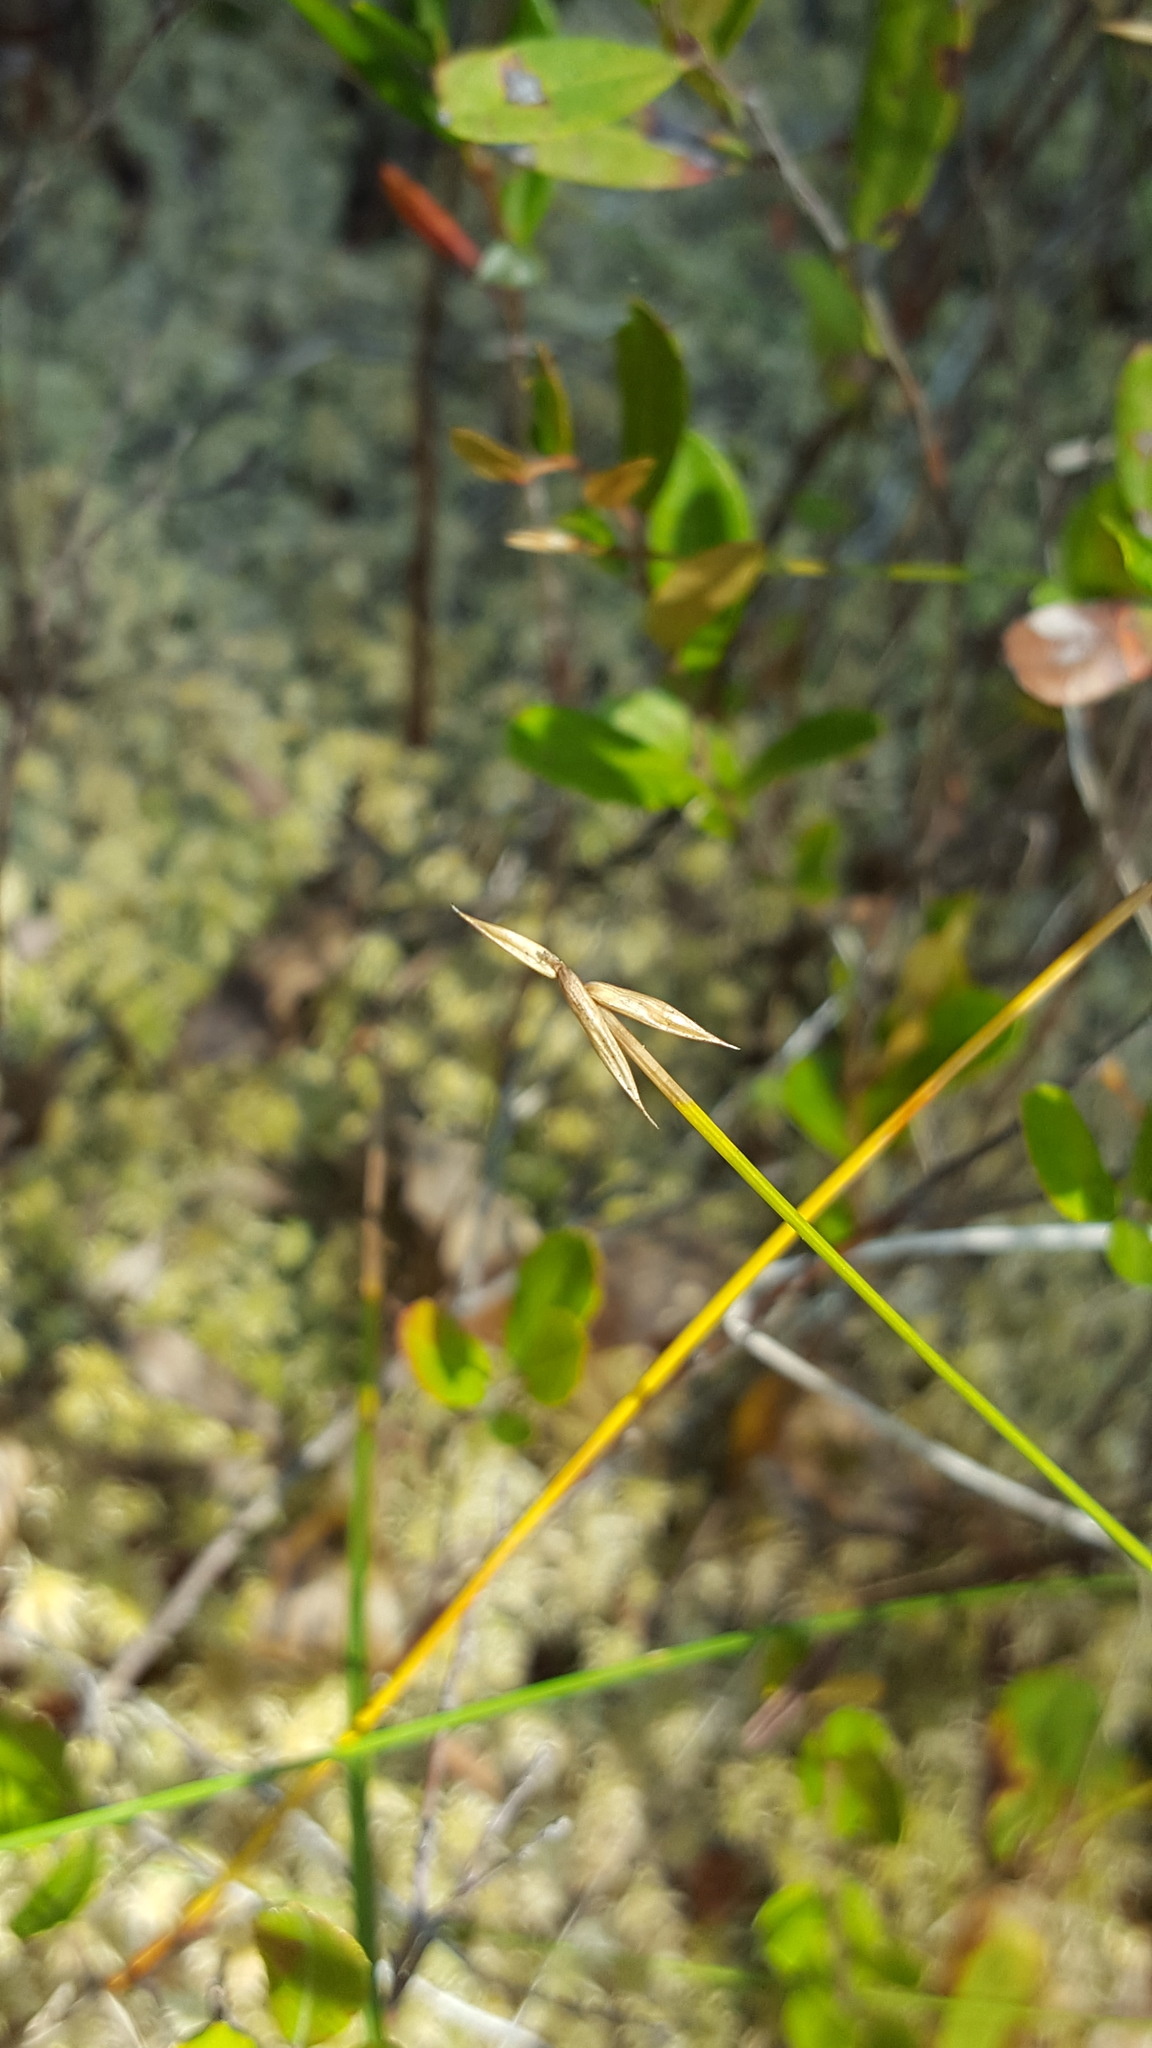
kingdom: Plantae
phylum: Tracheophyta
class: Liliopsida
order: Poales
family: Cyperaceae
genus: Carex
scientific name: Carex pauciflora
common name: Few-flowered sedge
